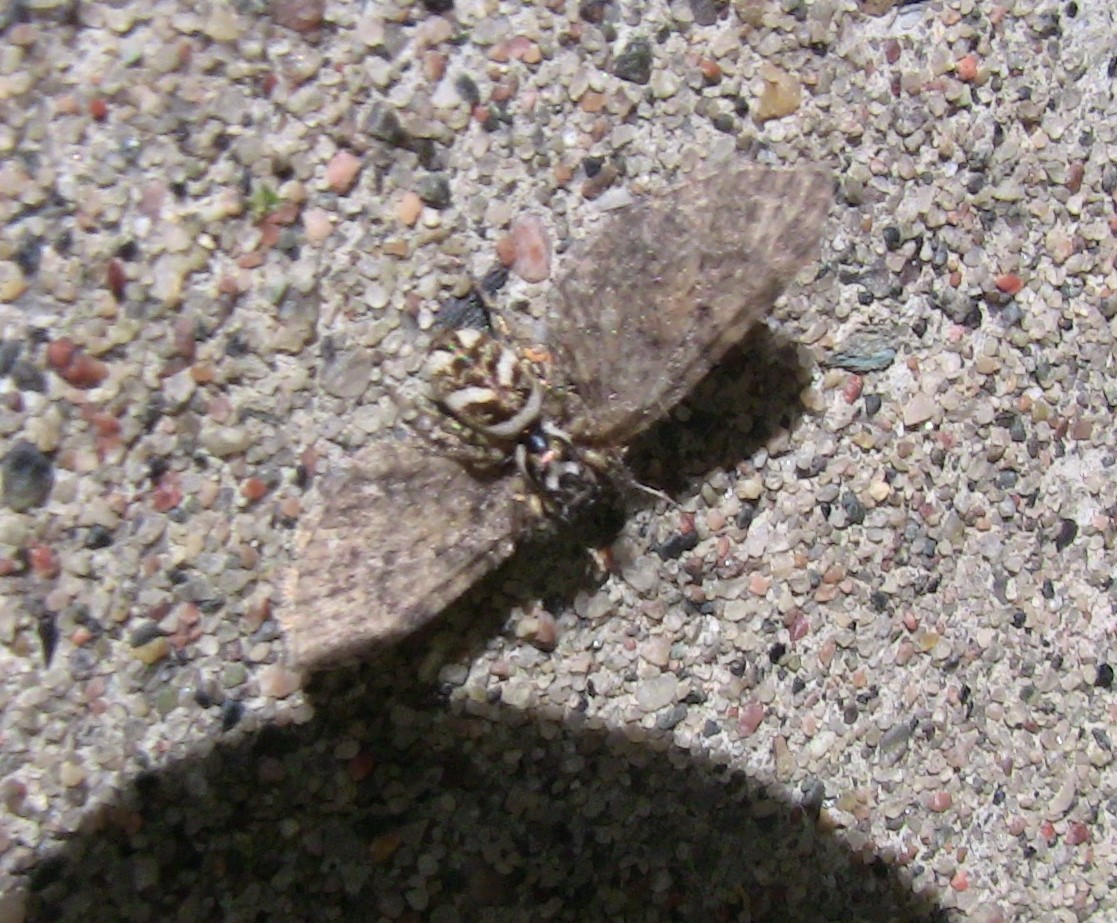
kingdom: Animalia
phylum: Arthropoda
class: Arachnida
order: Araneae
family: Salticidae
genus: Salticus
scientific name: Salticus scenicus
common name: Zebra jumper
